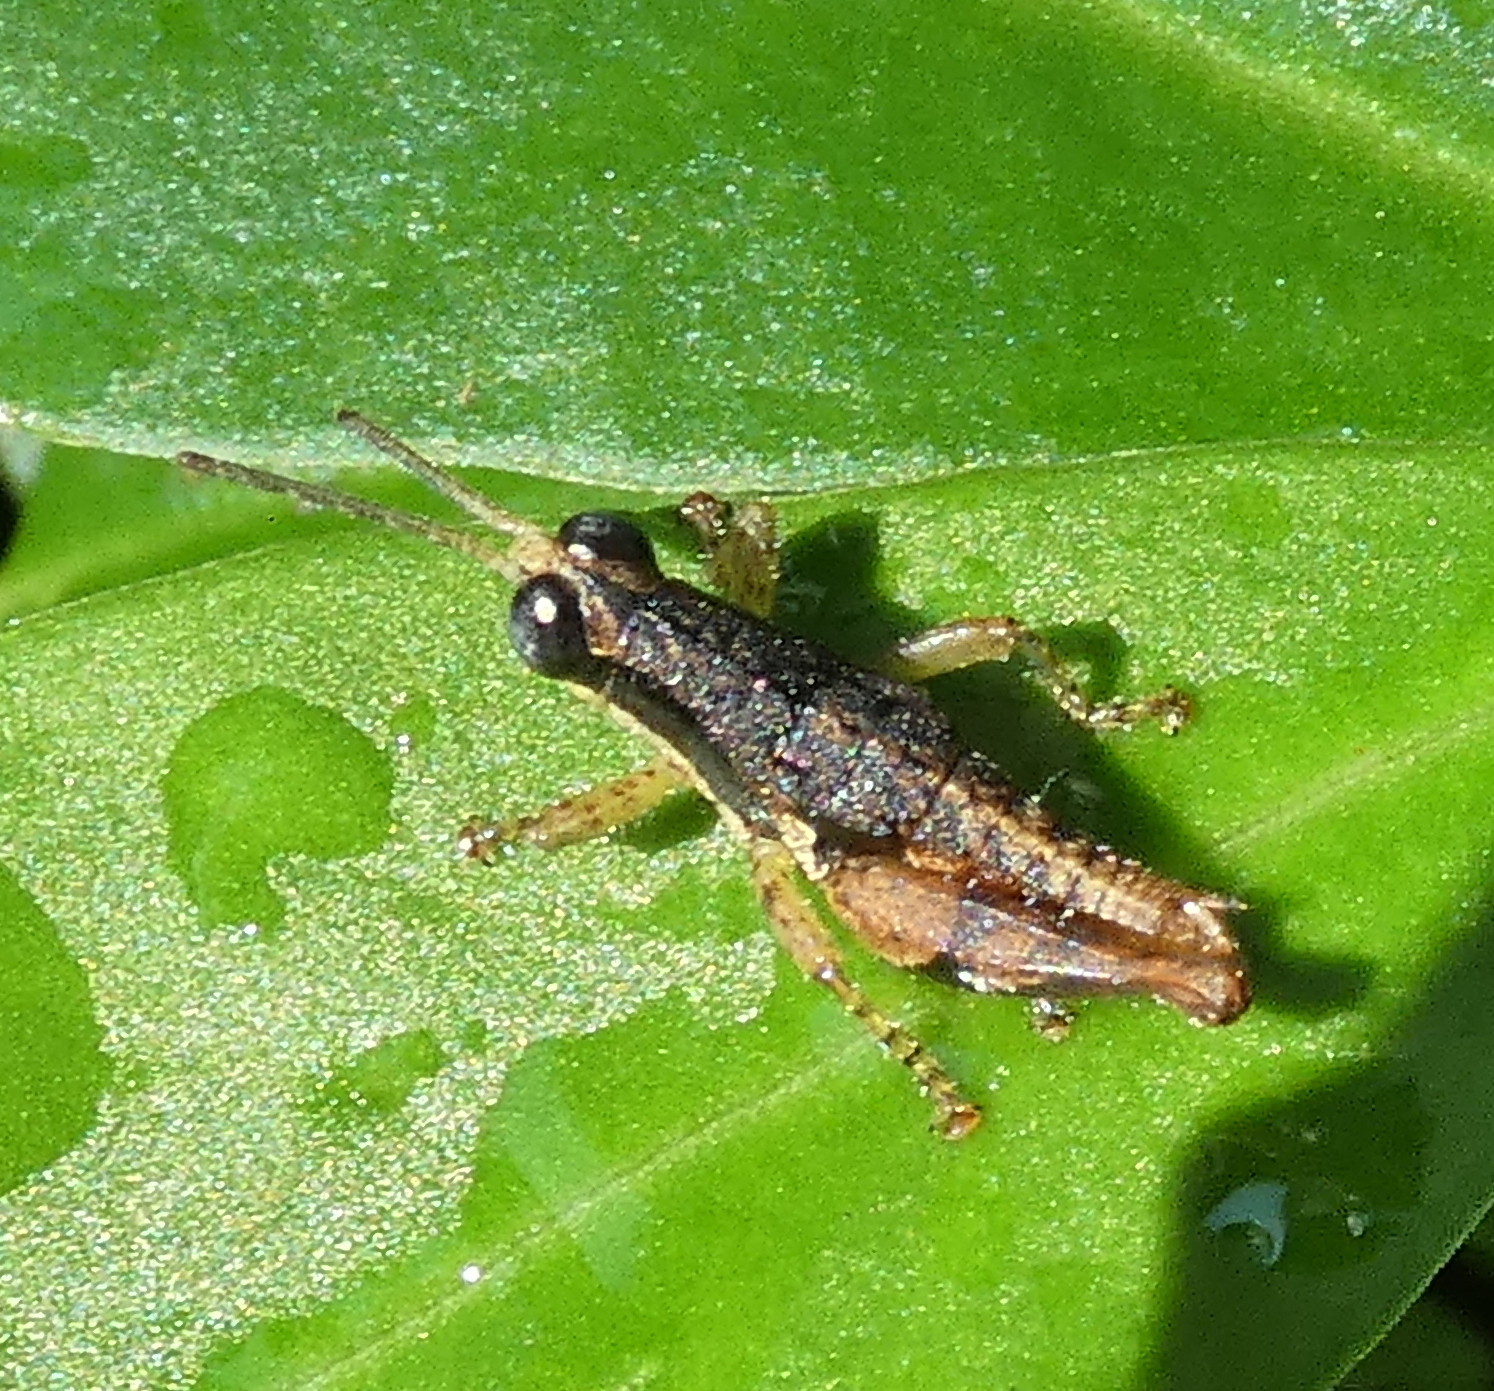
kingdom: Animalia
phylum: Arthropoda
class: Insecta
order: Orthoptera
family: Acrididae
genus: Eujivarus
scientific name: Eujivarus meridionalis
